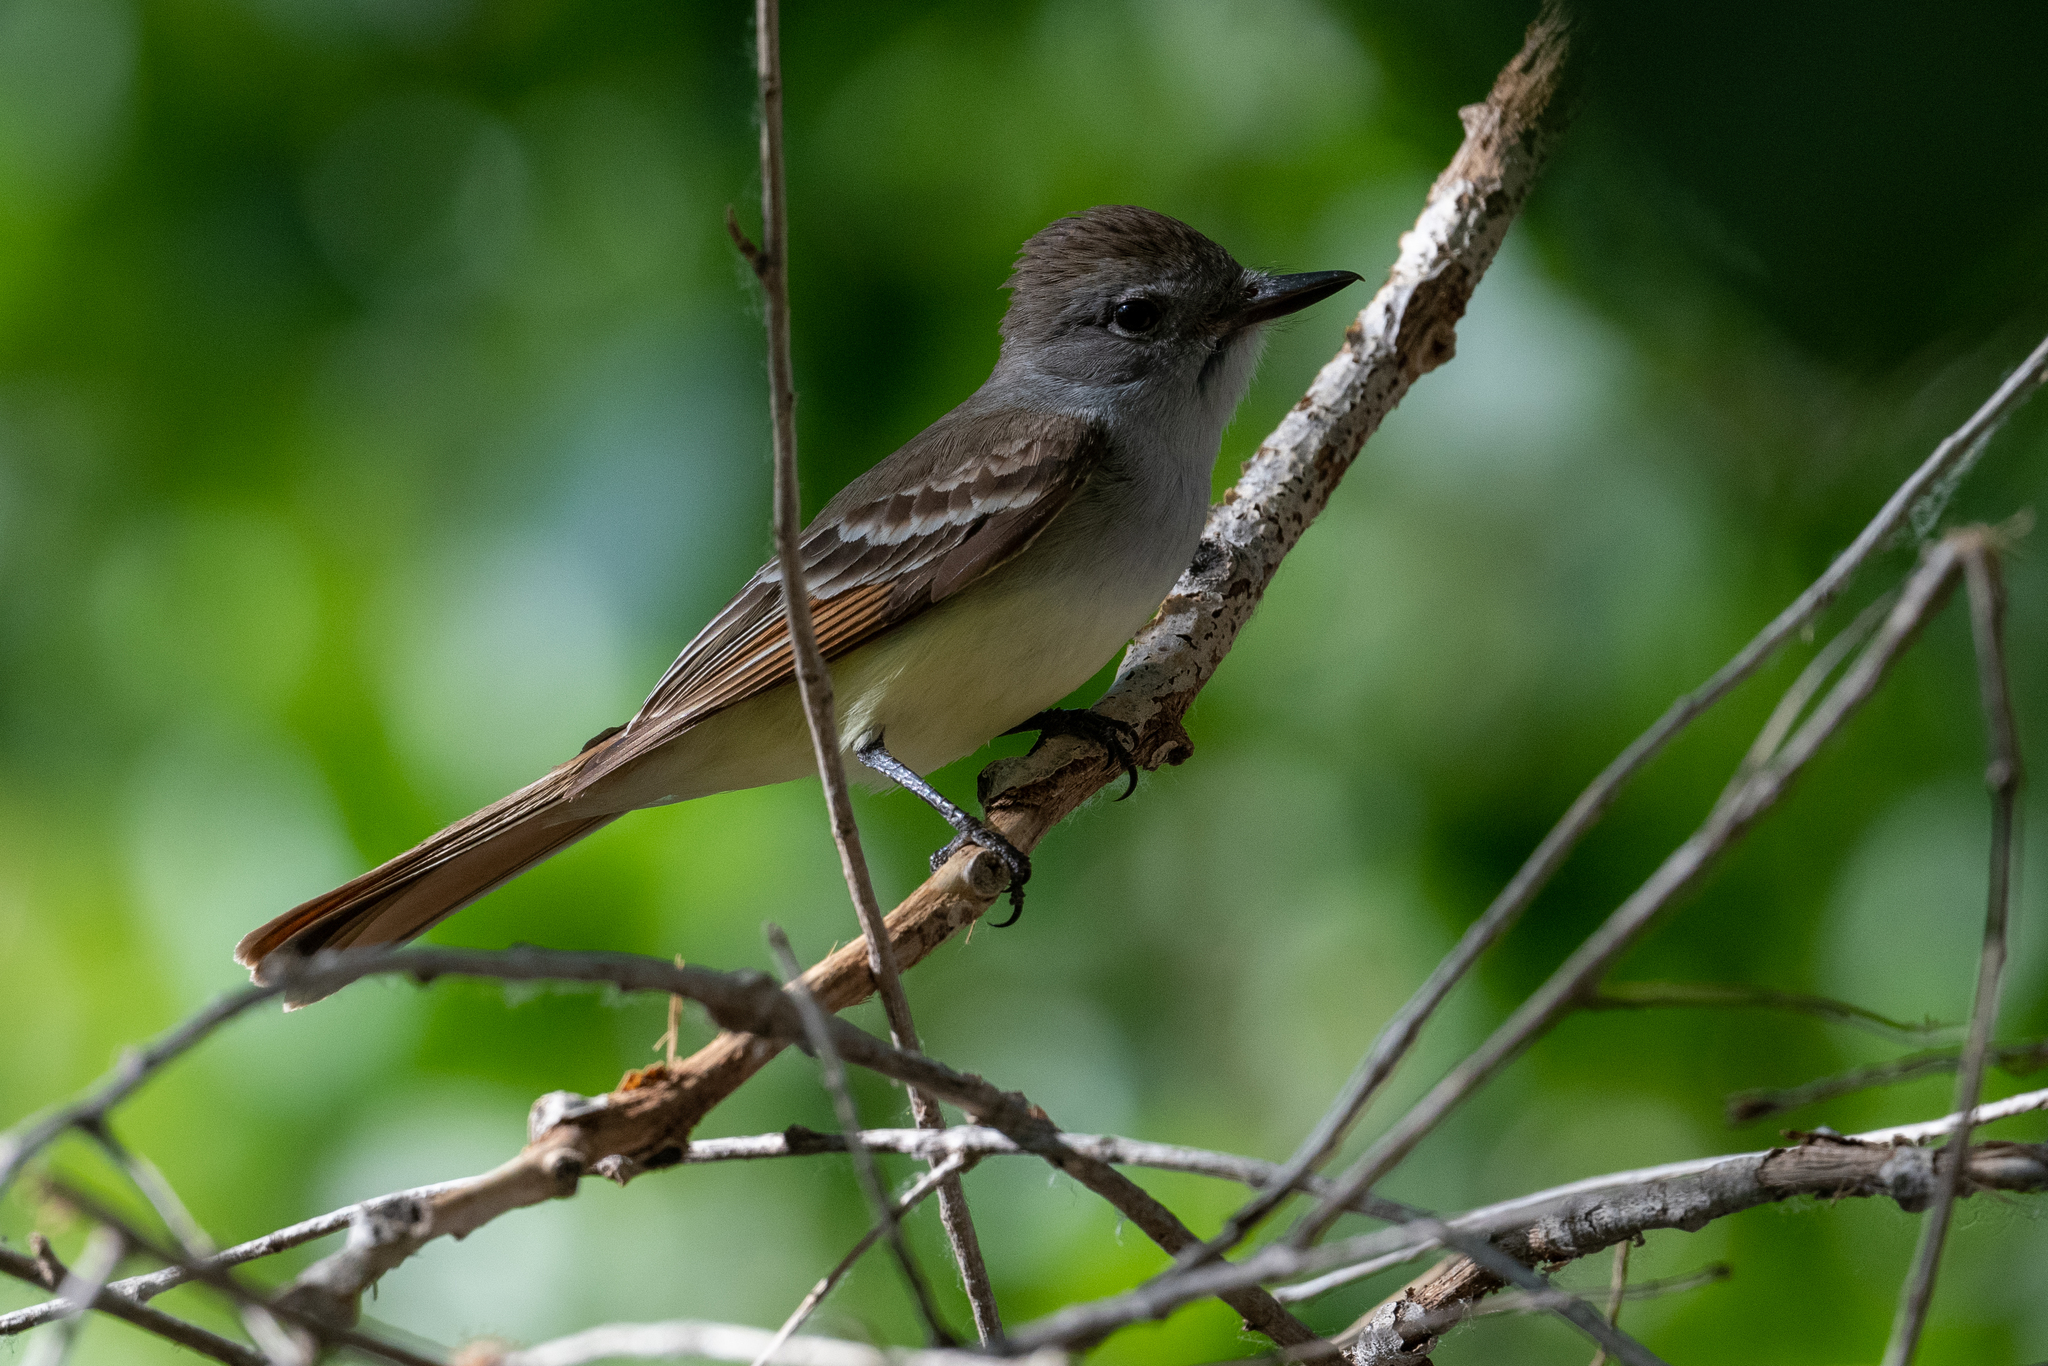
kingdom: Animalia
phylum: Chordata
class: Aves
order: Passeriformes
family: Tyrannidae
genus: Myiarchus
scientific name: Myiarchus cinerascens
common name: Ash-throated flycatcher
